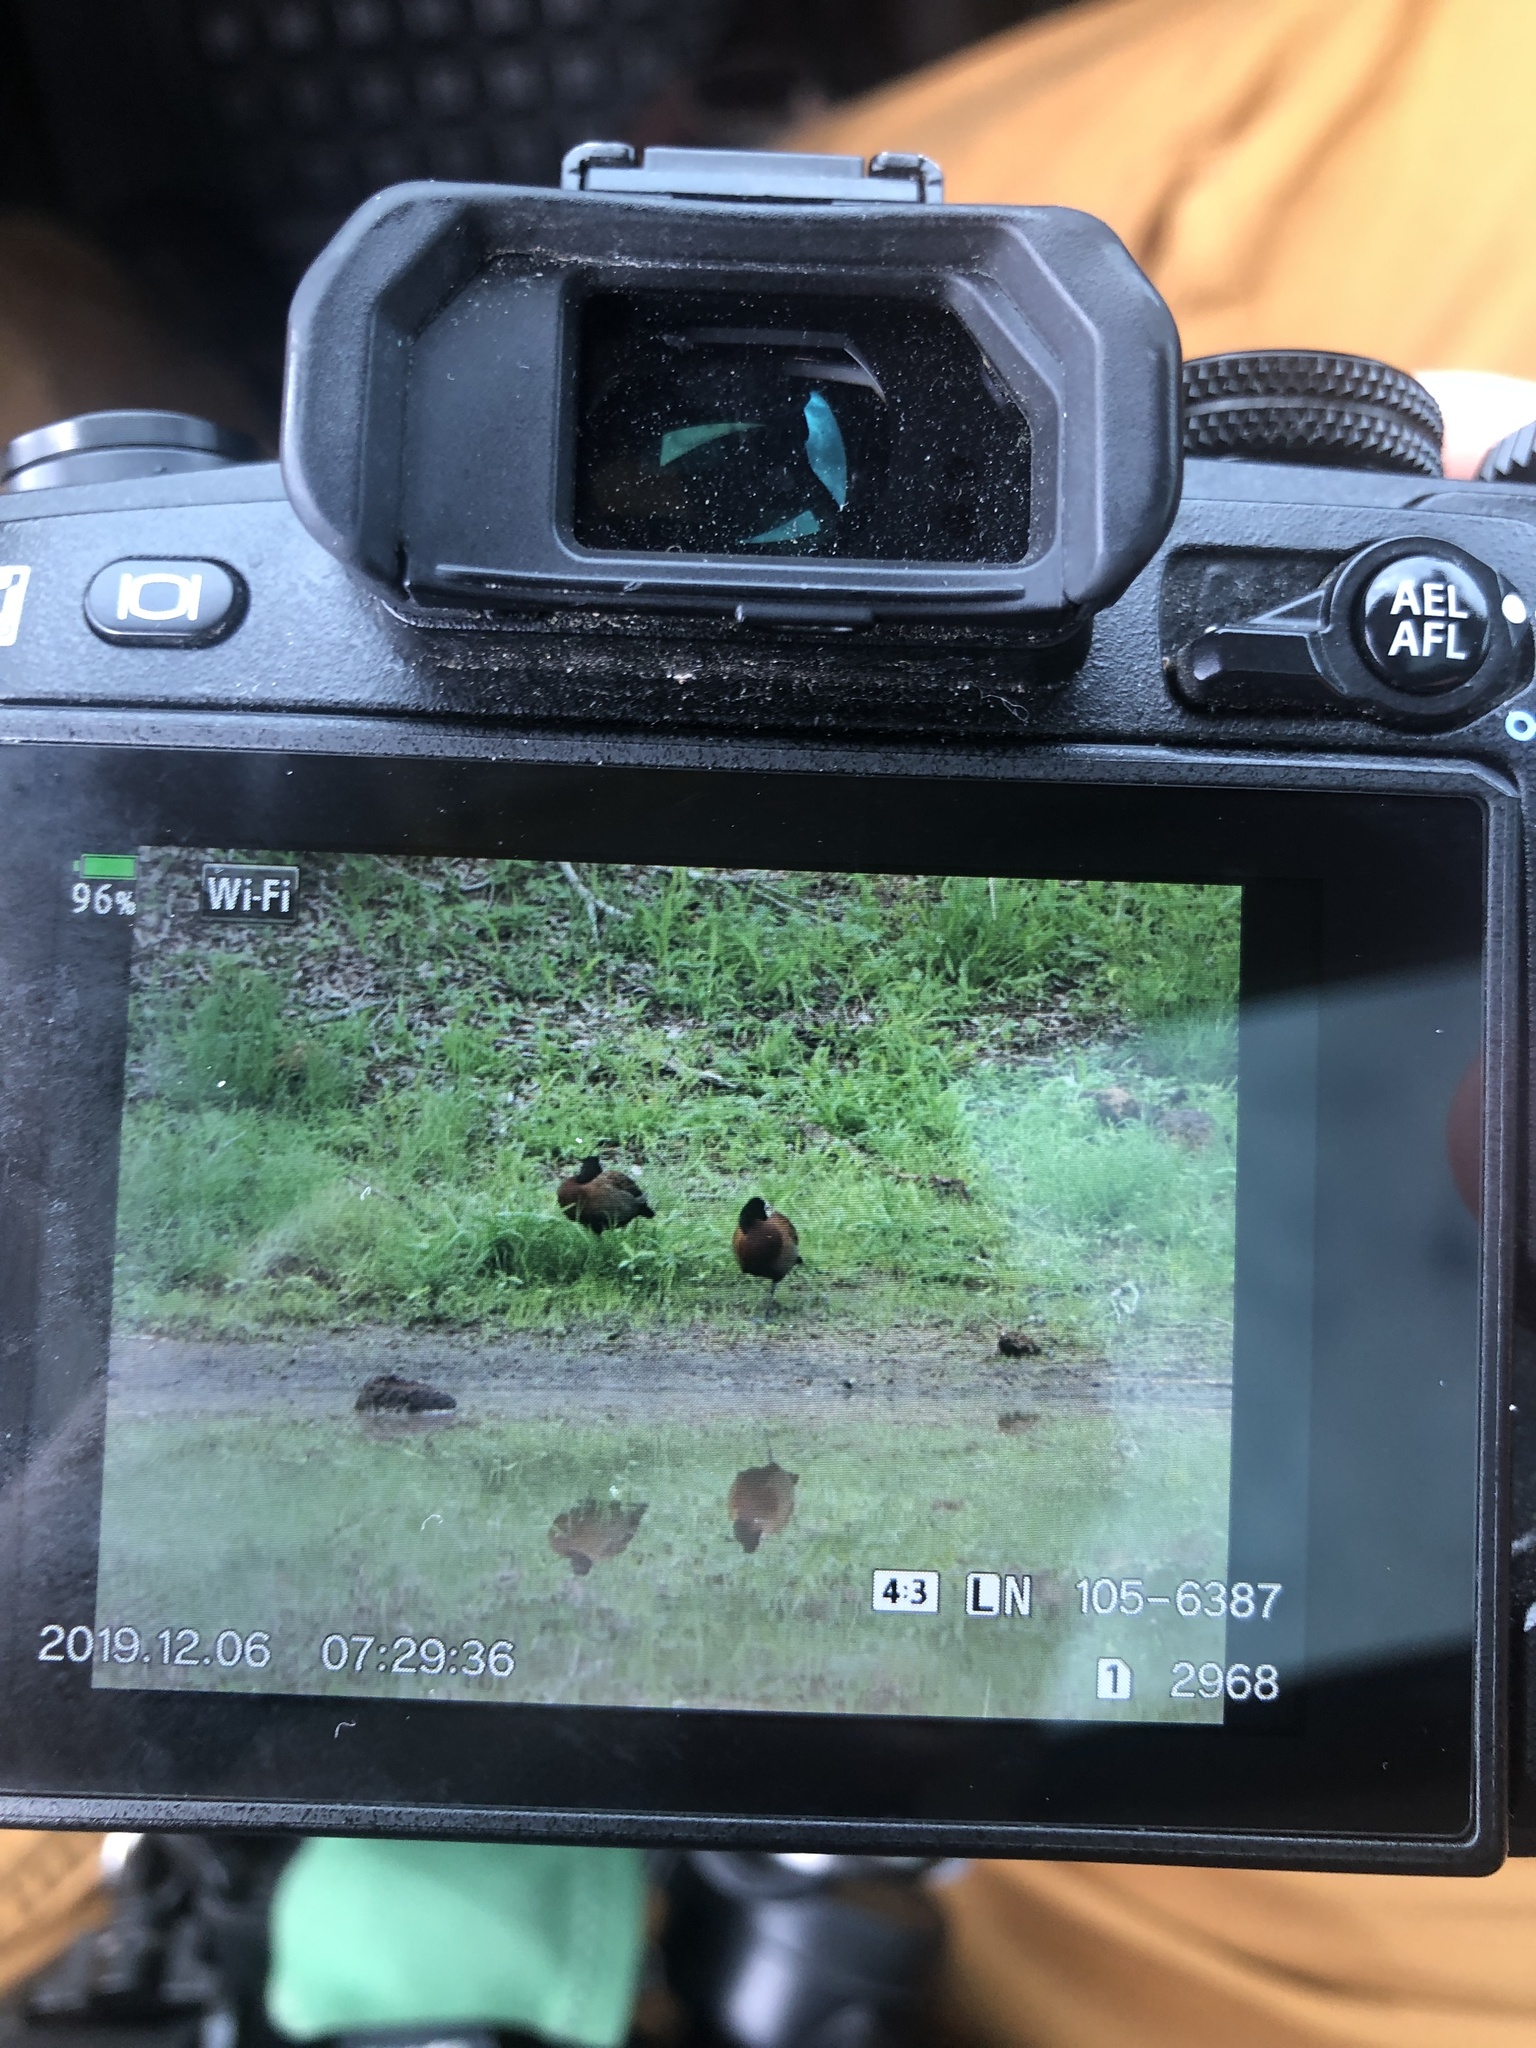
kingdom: Animalia
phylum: Chordata
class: Aves
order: Anseriformes
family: Anatidae
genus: Dendrocygna
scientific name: Dendrocygna viduata
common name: White-faced whistling duck
